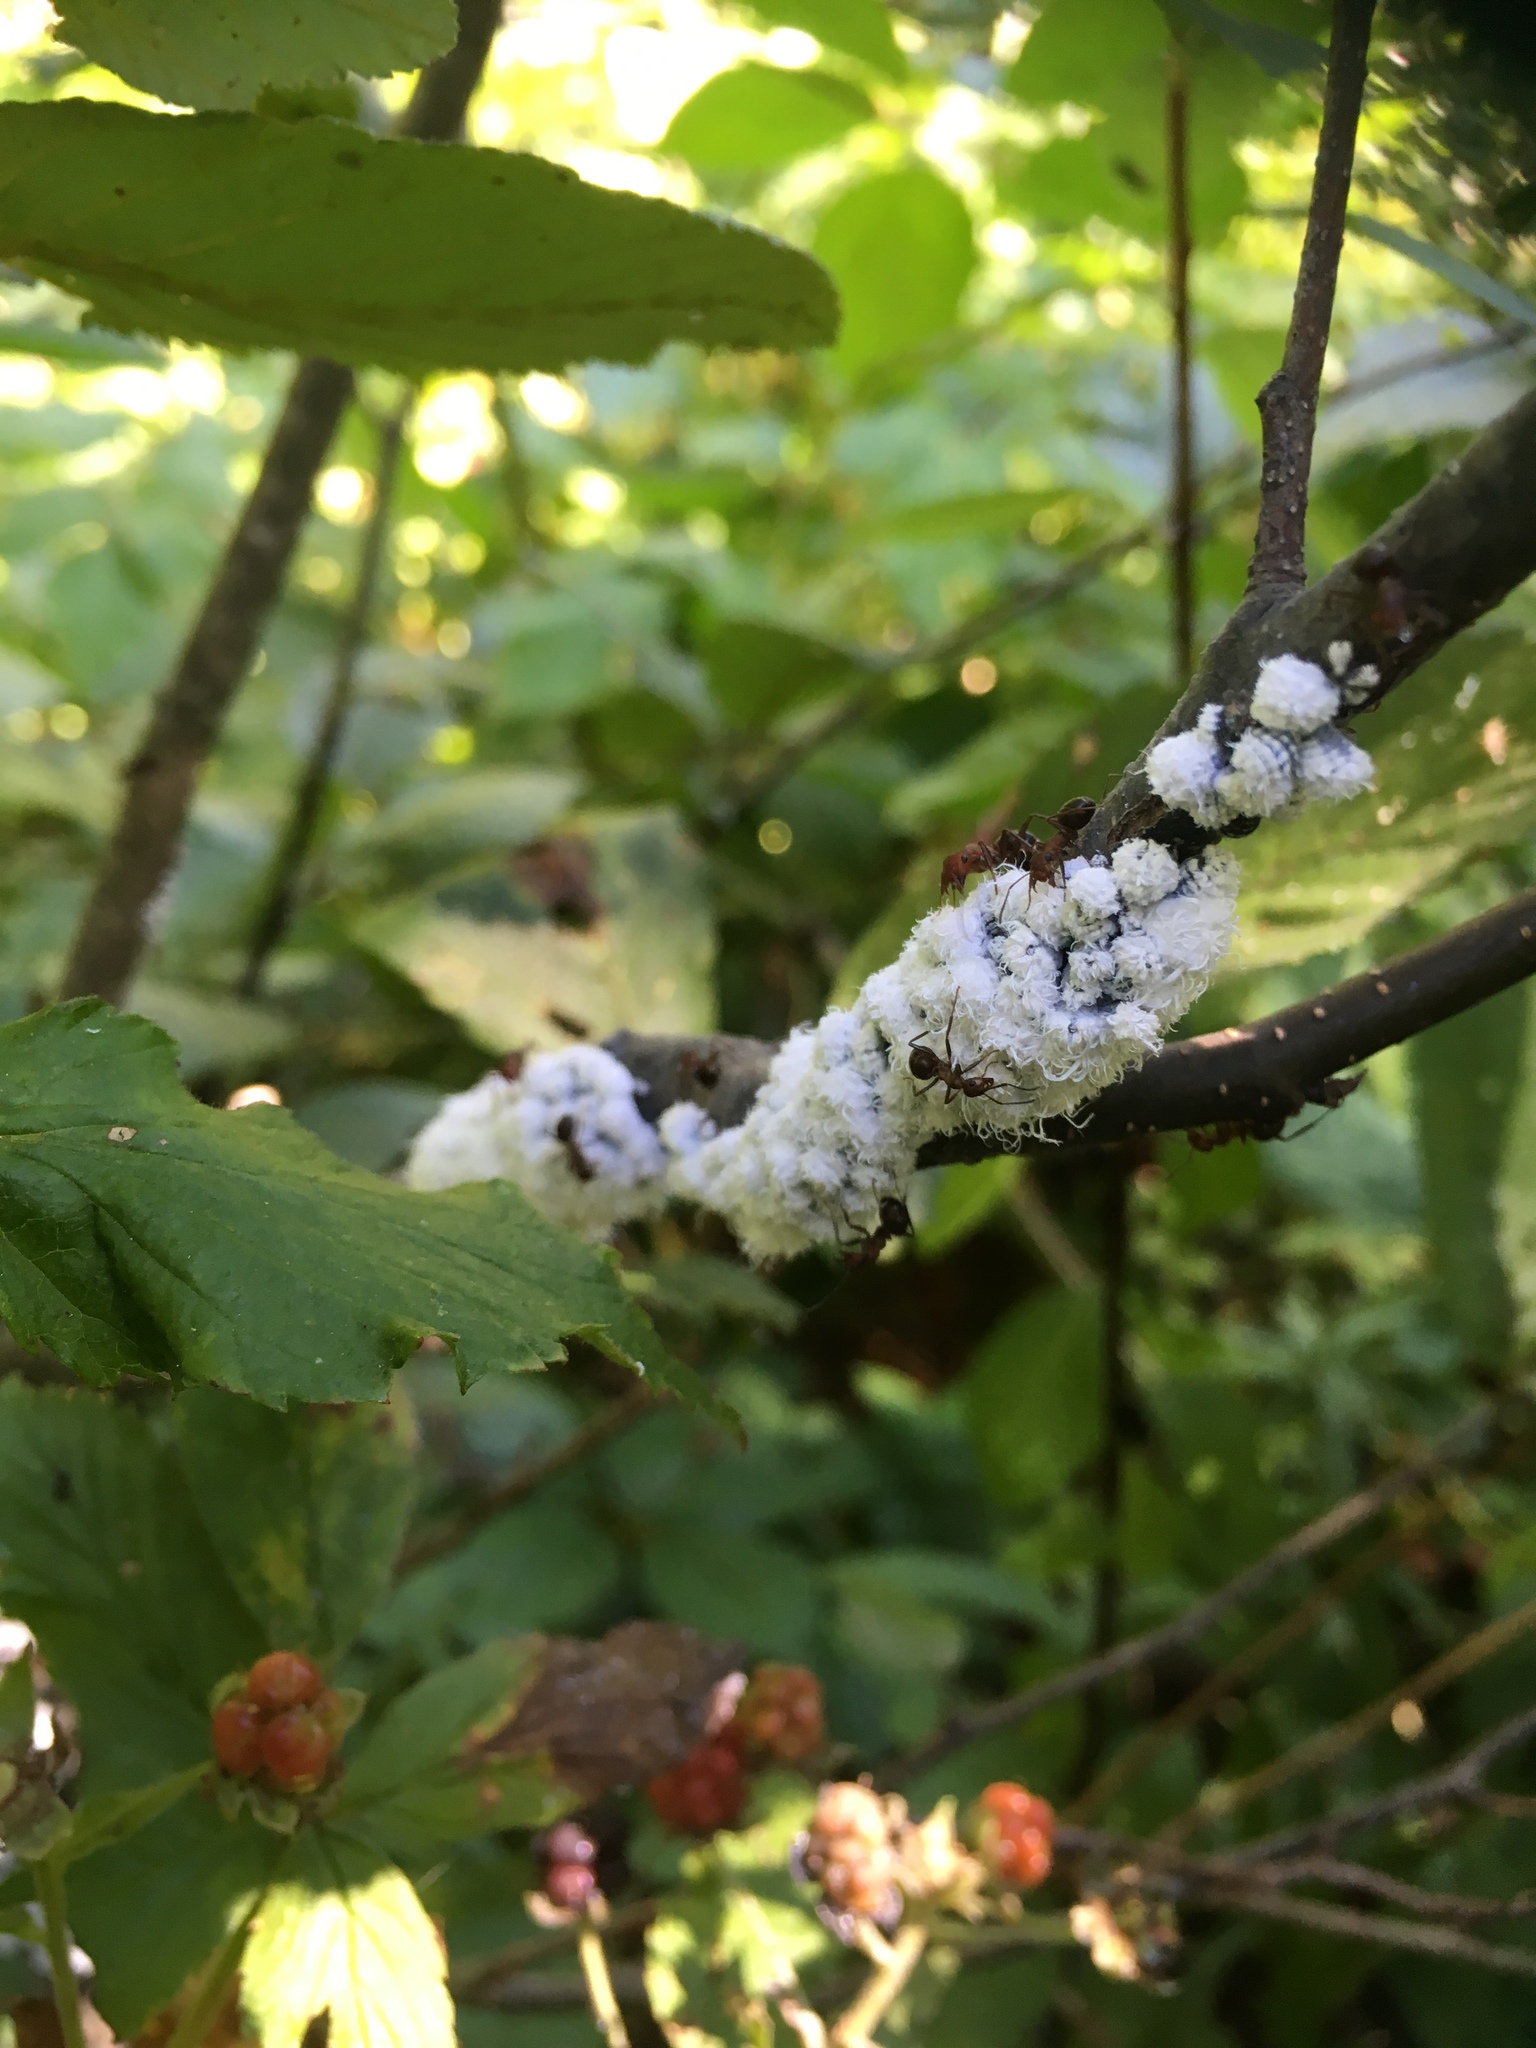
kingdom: Animalia
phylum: Arthropoda
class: Insecta
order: Hemiptera
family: Aphididae
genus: Prociphilus
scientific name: Prociphilus tessellatus
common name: Woolly alder aphid
